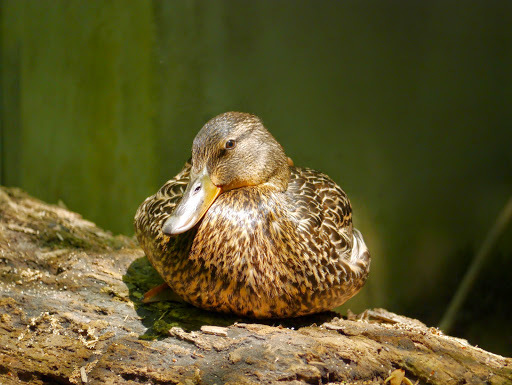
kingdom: Animalia
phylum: Chordata
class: Aves
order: Anseriformes
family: Anatidae
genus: Anas
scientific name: Anas platyrhynchos
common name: Mallard
